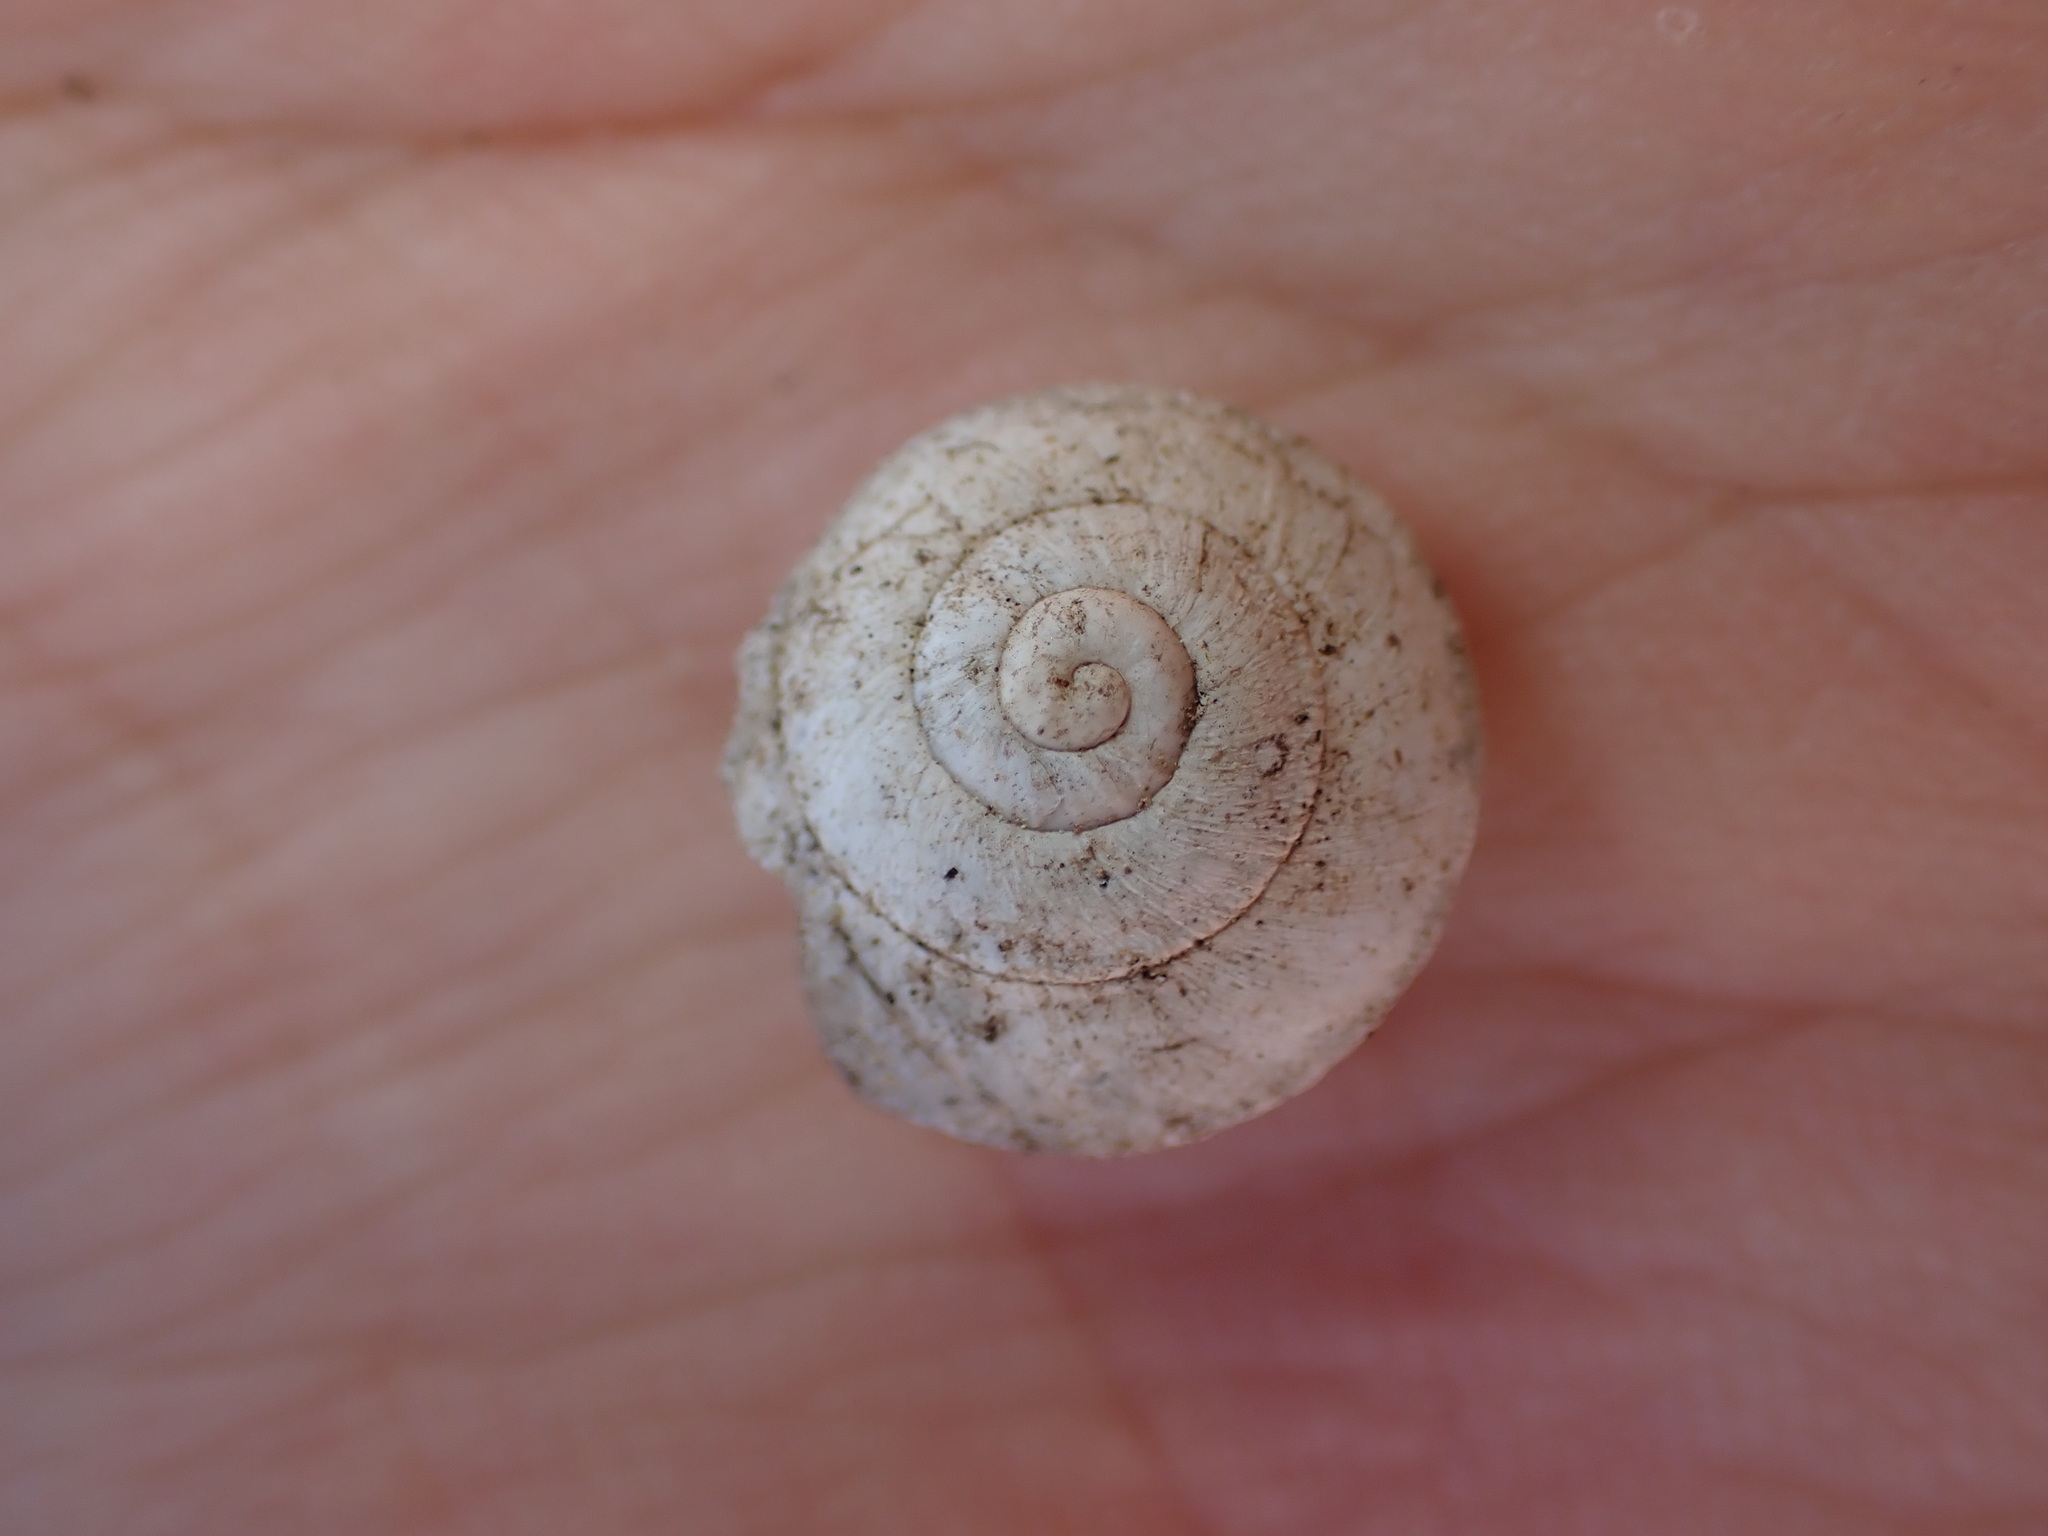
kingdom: Animalia
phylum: Mollusca
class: Gastropoda
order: Stylommatophora
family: Sphincterochilidae
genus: Sphincterochila
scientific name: Sphincterochila candidissima
